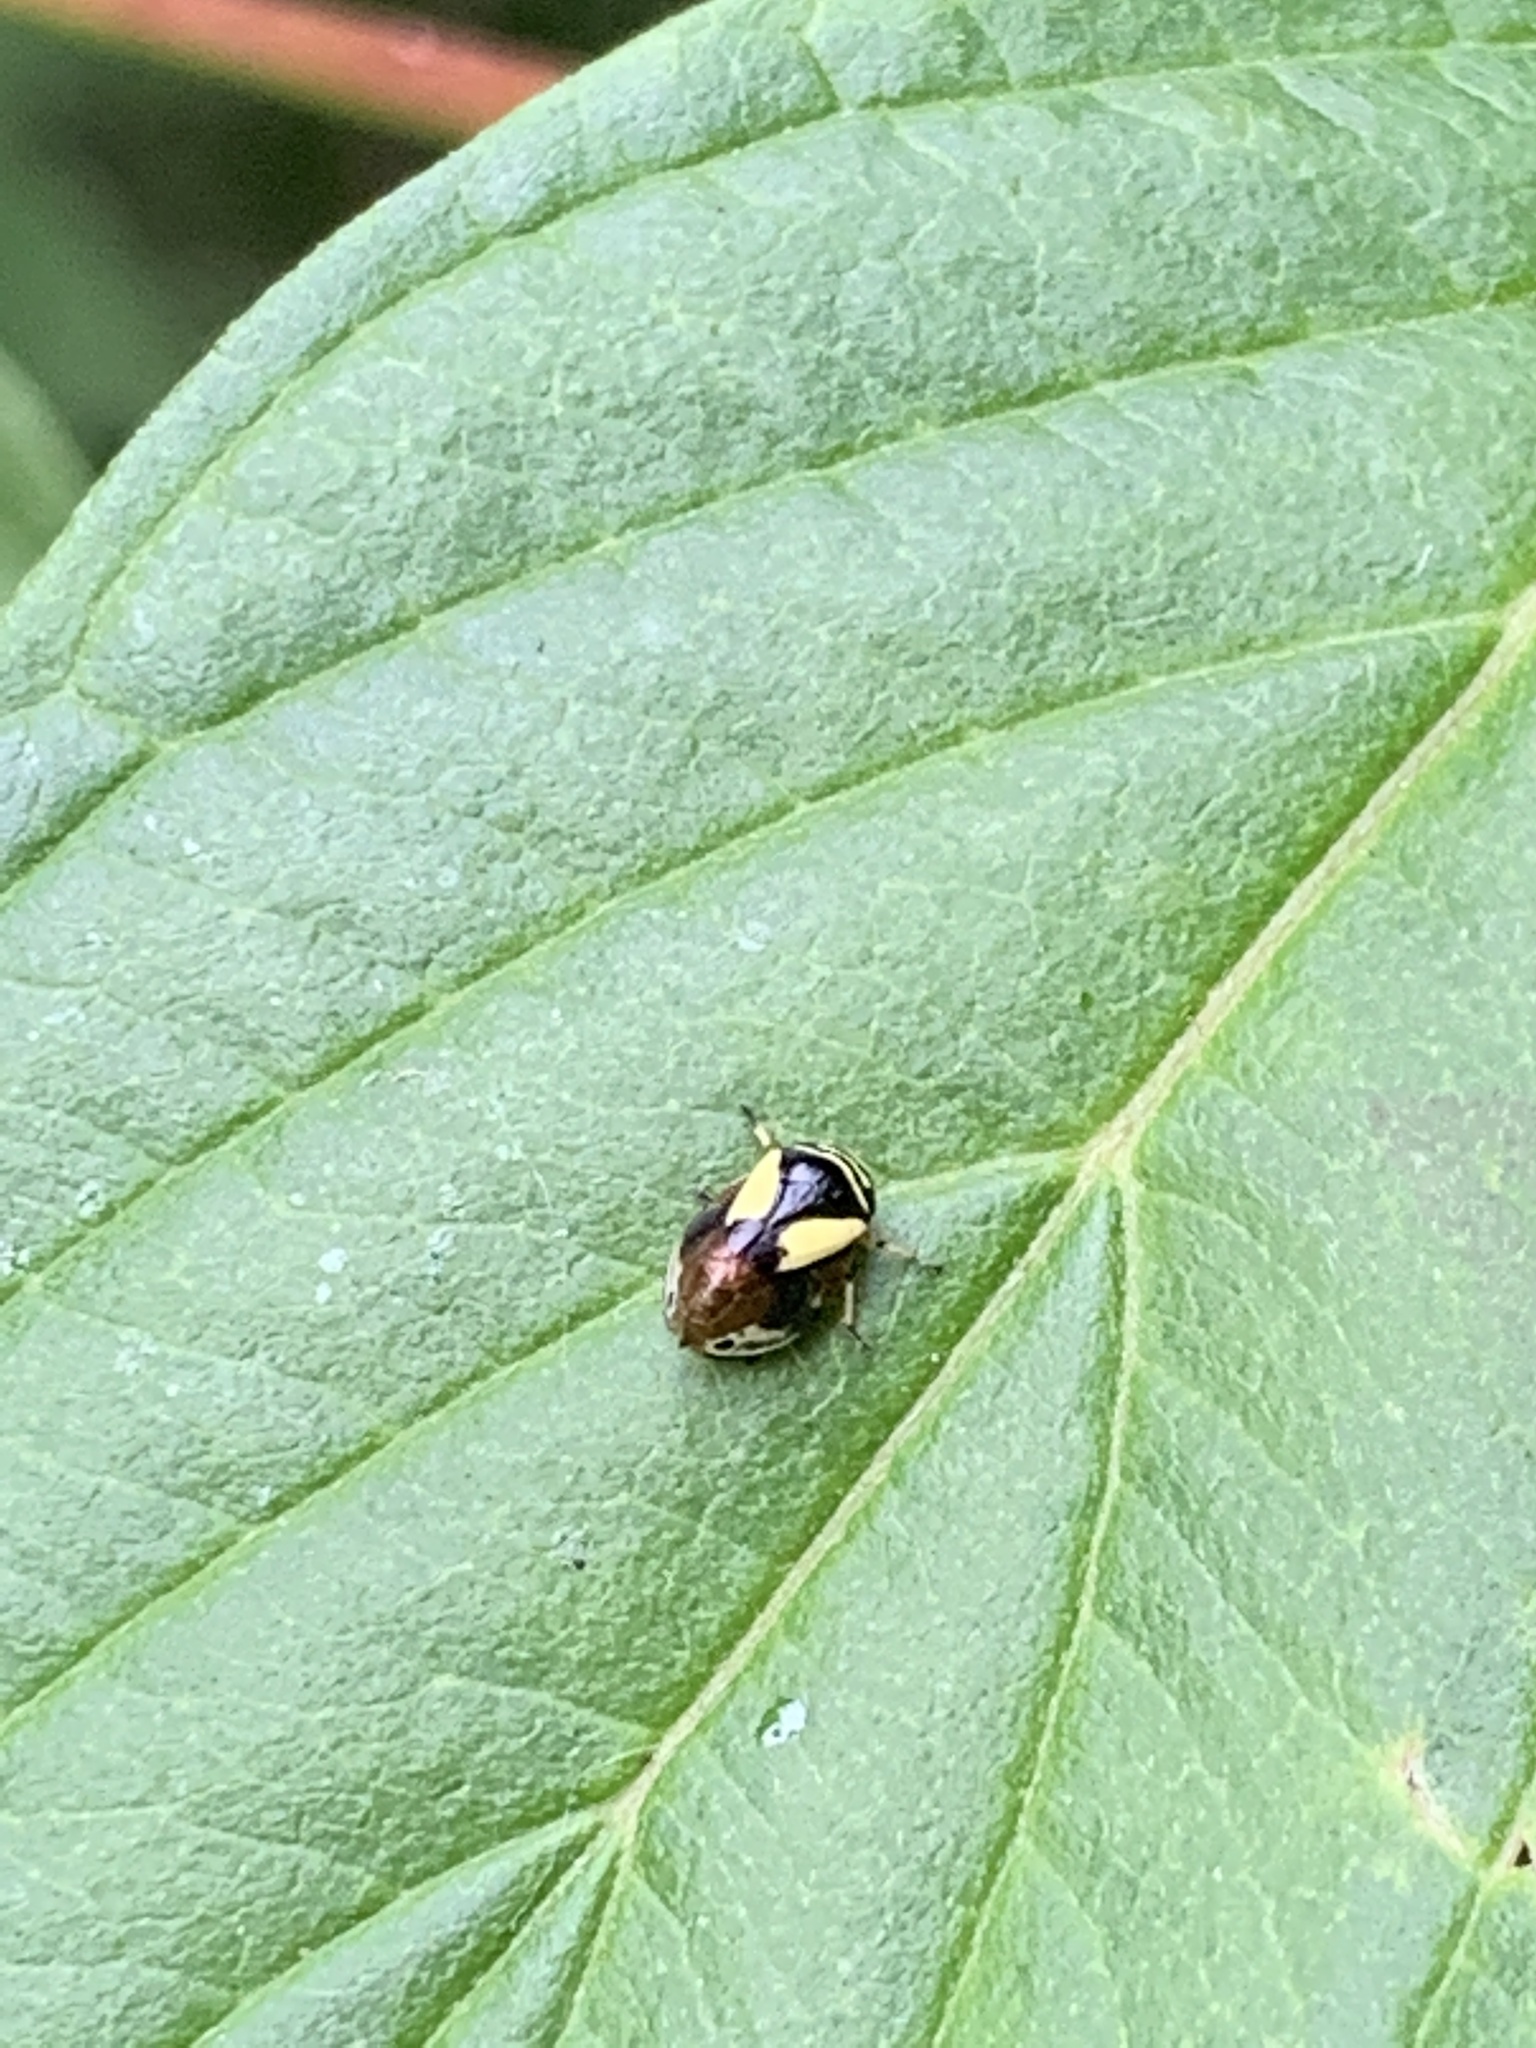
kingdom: Animalia
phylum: Arthropoda
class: Insecta
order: Hemiptera
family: Clastopteridae
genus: Clastoptera
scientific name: Clastoptera proteus
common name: Dogwood spittlebug
